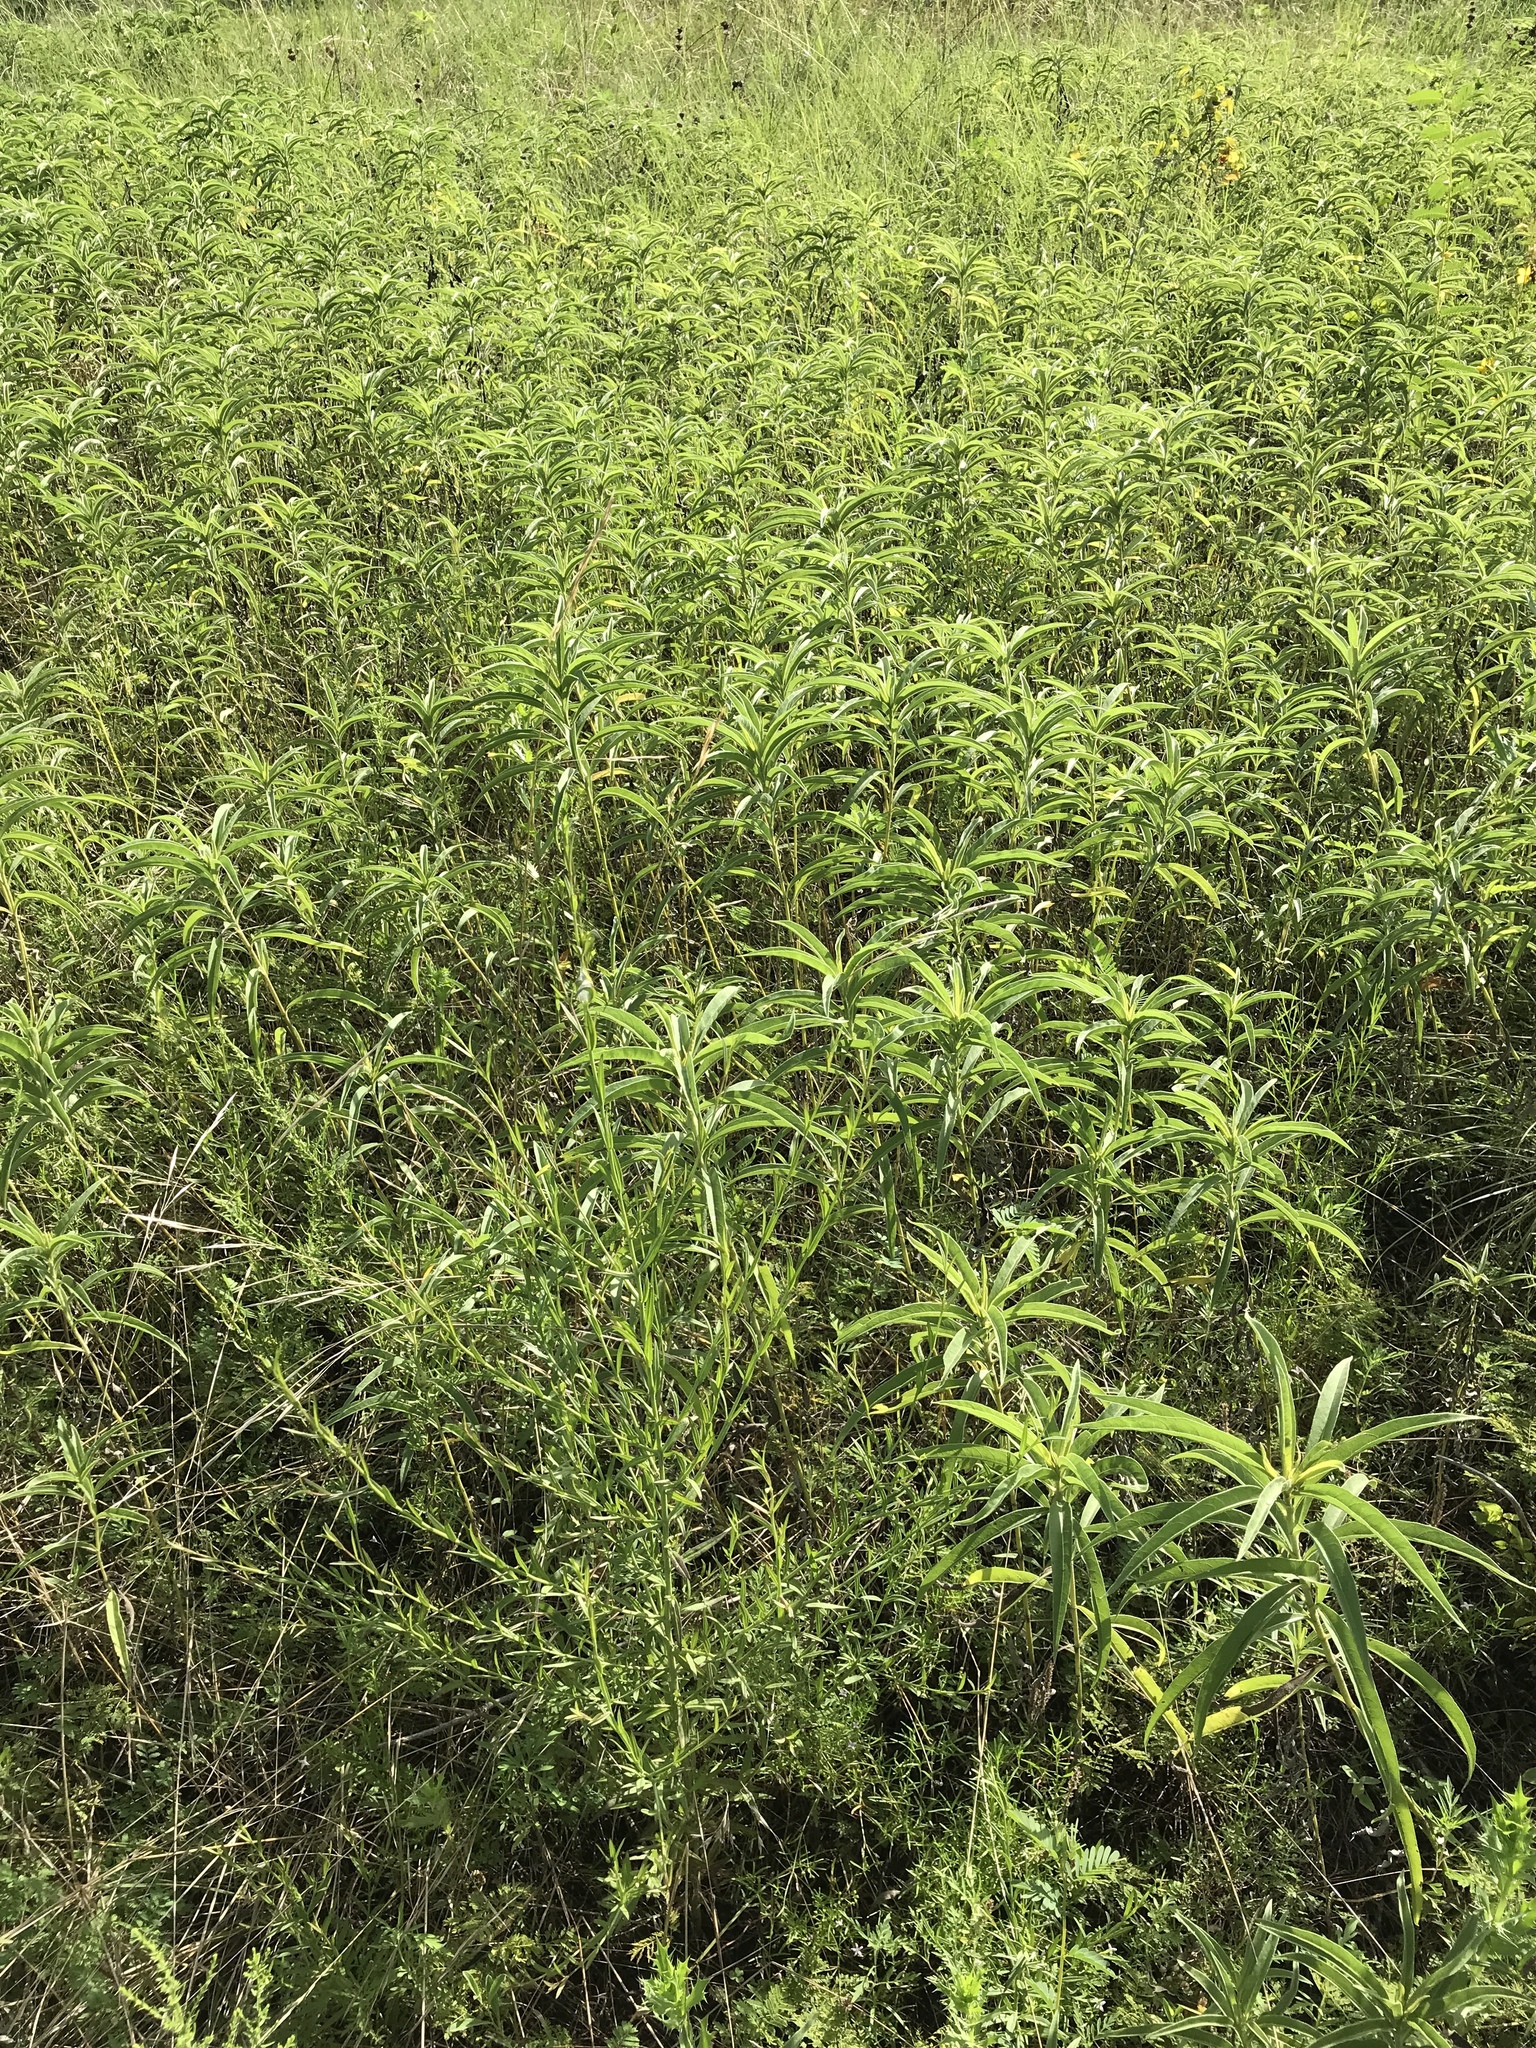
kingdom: Plantae
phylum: Tracheophyta
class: Magnoliopsida
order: Asterales
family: Asteraceae
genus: Helianthus
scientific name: Helianthus maximiliani
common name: Maximilian's sunflower
